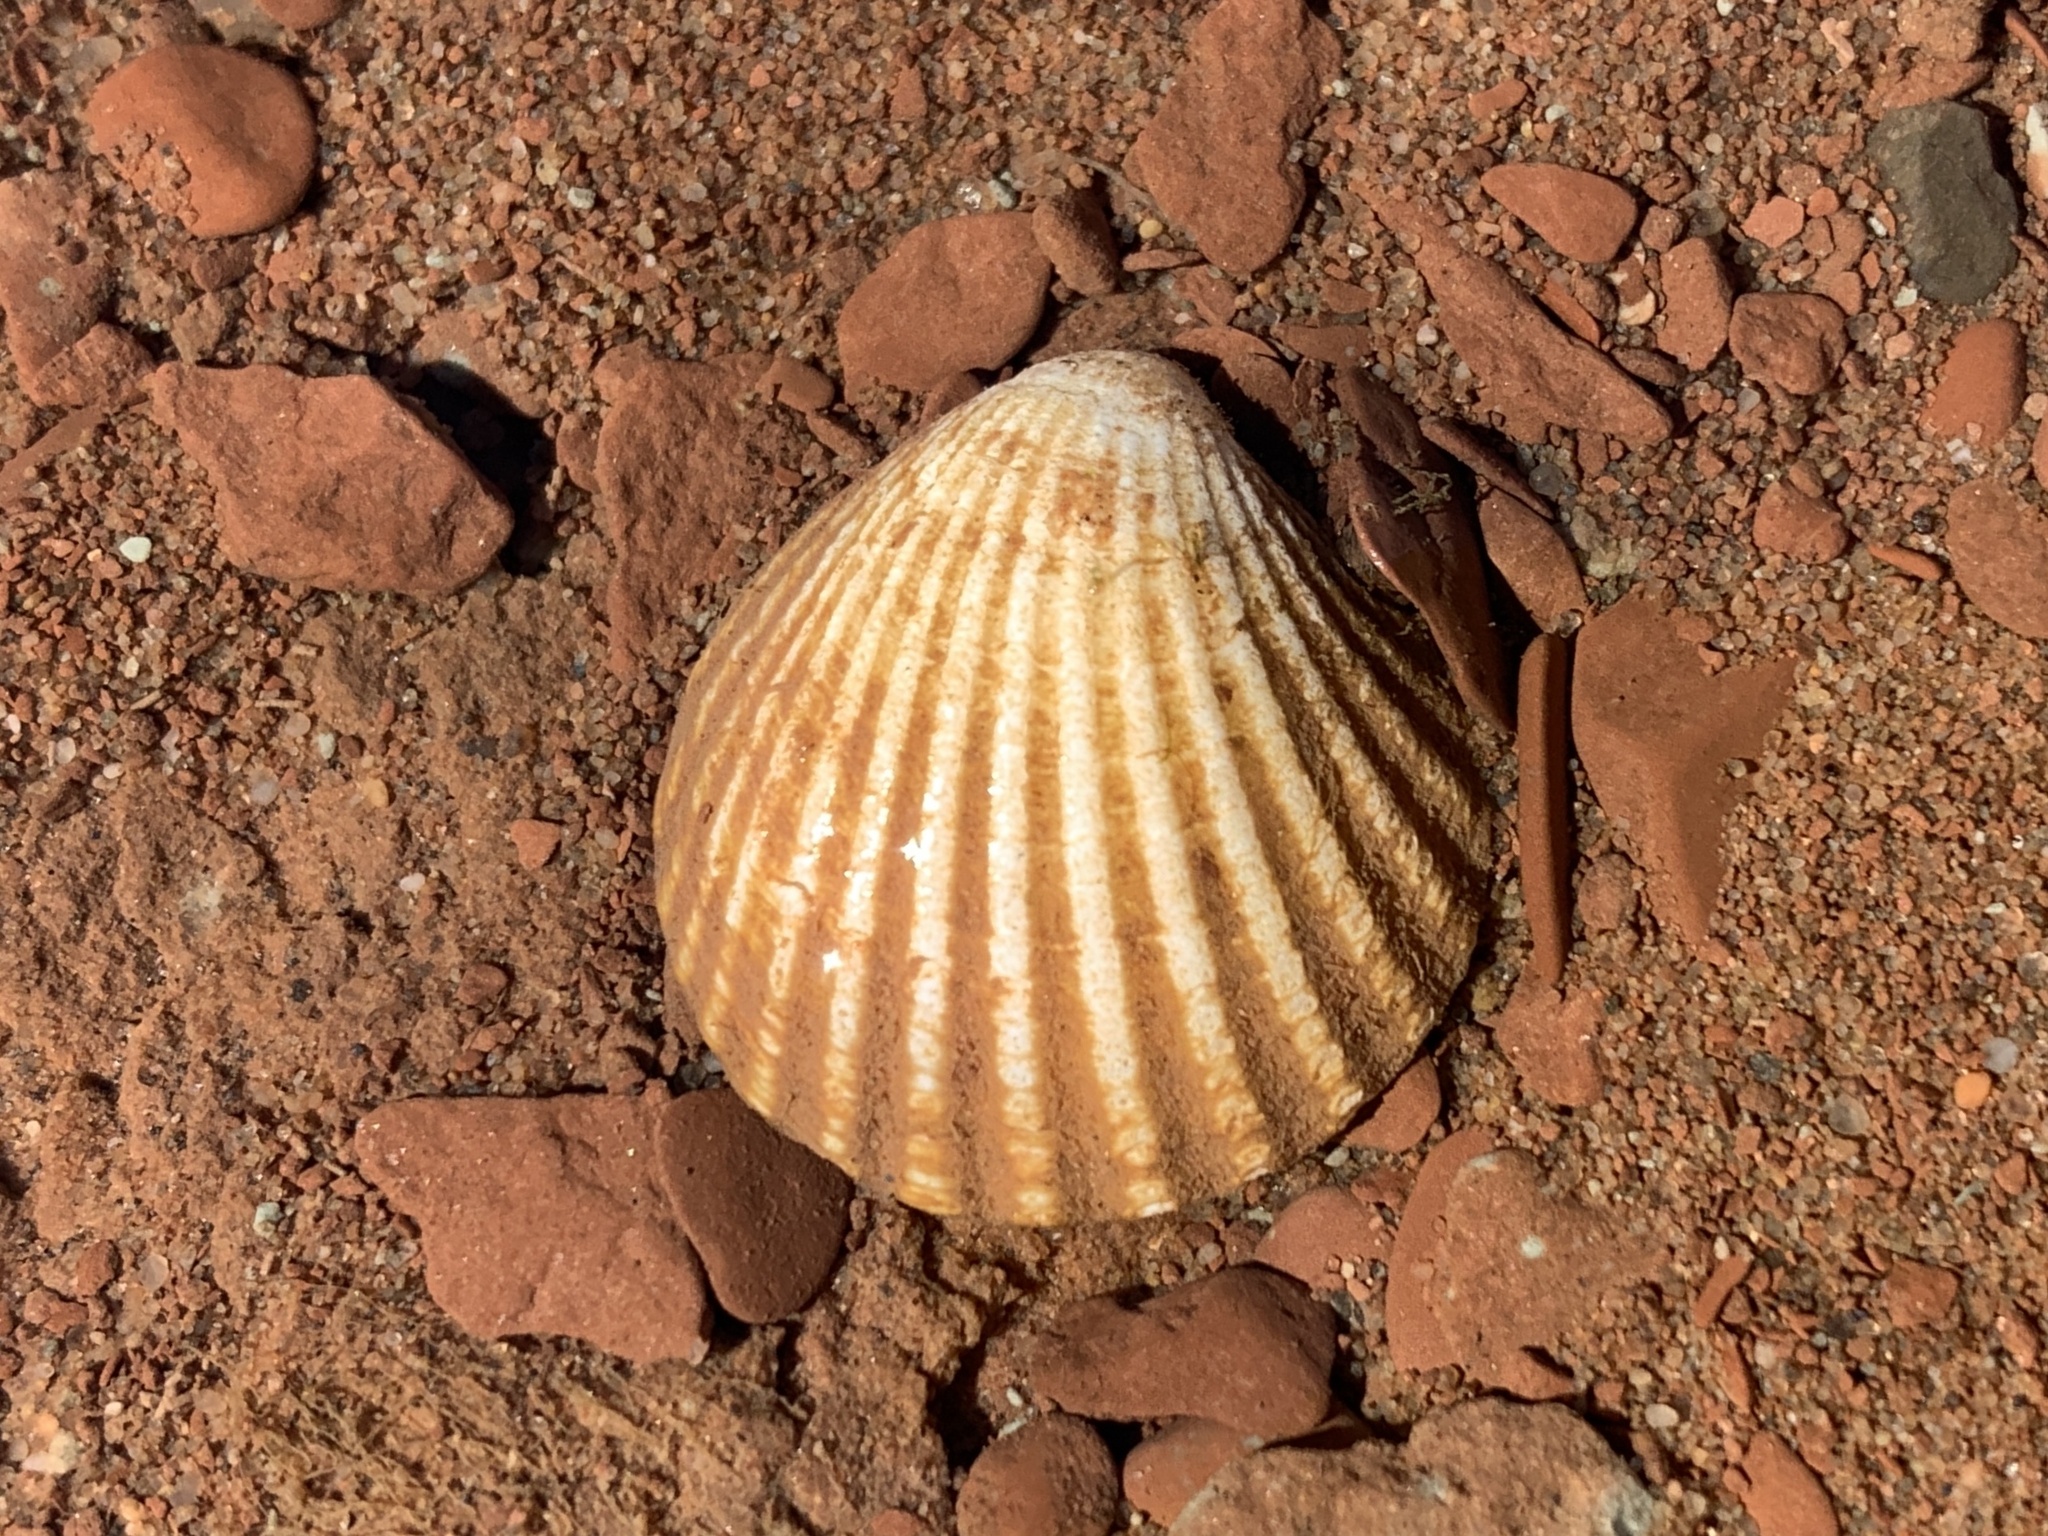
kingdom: Animalia
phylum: Mollusca
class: Bivalvia
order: Carditida
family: Carditidae
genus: Cyclocardia
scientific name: Cyclocardia borealis
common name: Northern cyclocardia
